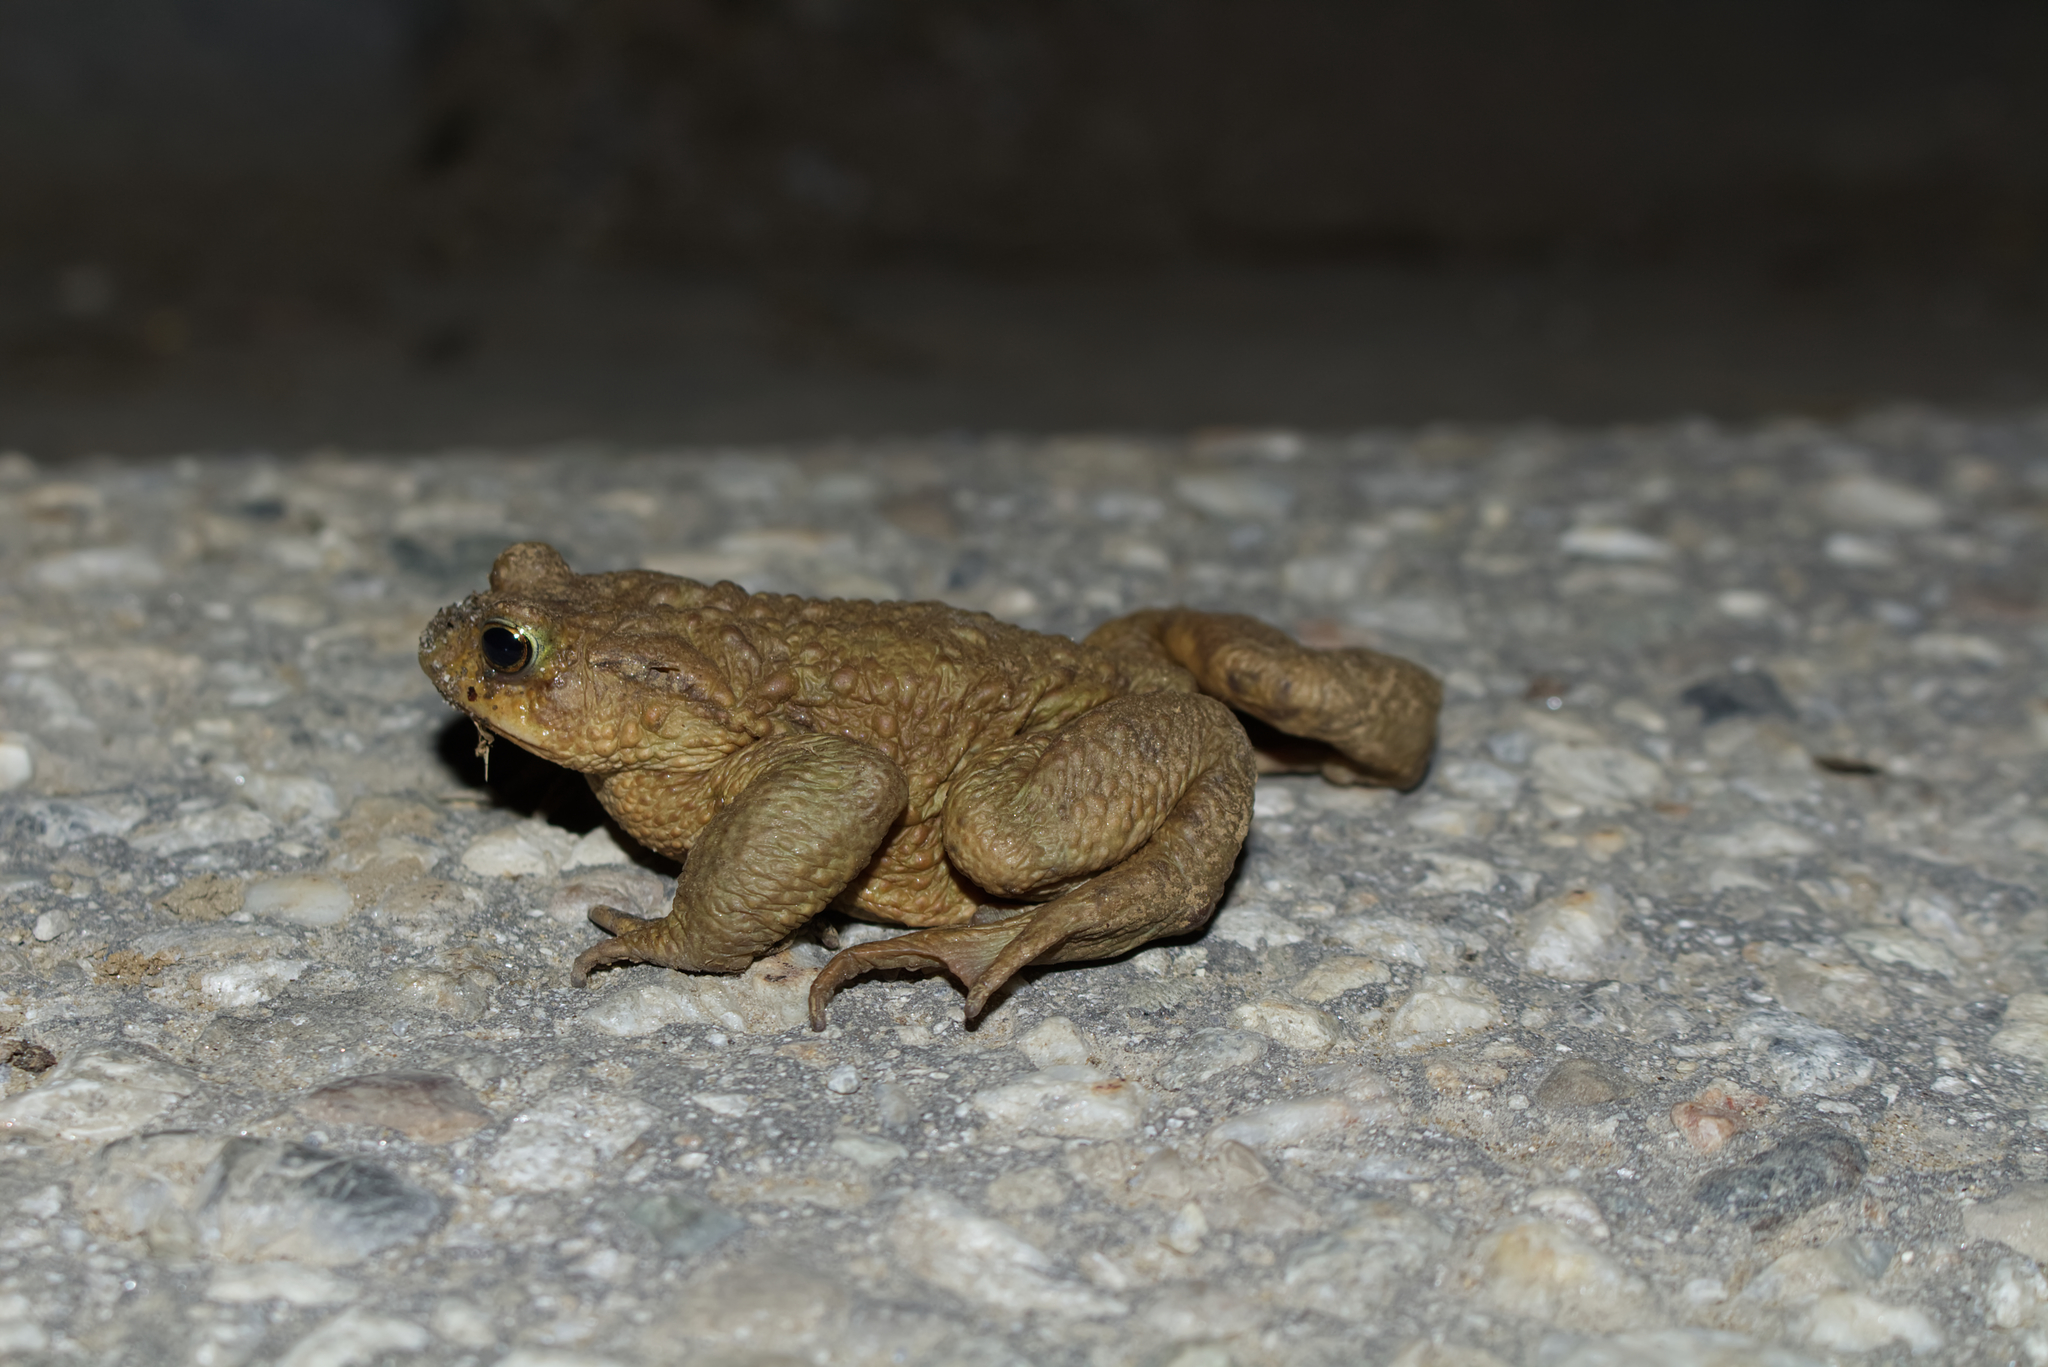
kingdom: Animalia
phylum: Chordata
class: Amphibia
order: Anura
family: Bufonidae
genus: Bufo
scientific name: Bufo bufo
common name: Common toad
